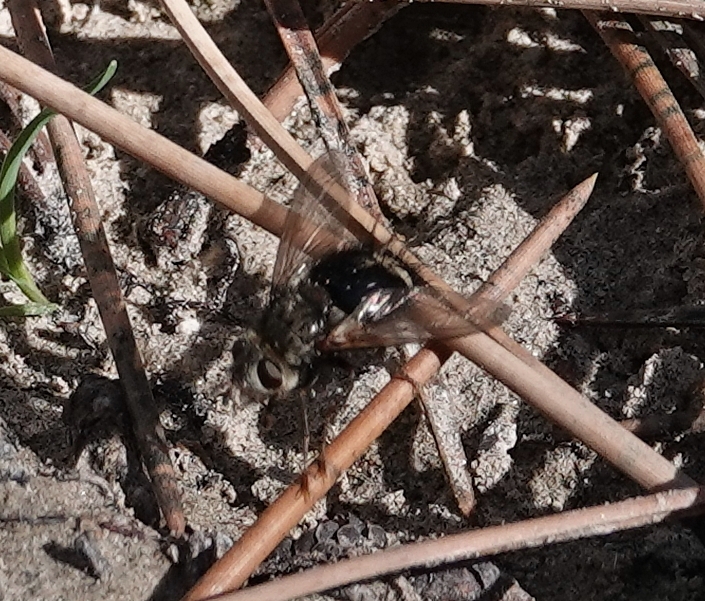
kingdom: Animalia
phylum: Arthropoda
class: Insecta
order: Diptera
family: Tachinidae
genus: Epalpus
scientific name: Epalpus signifer
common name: Early tachinid fly
